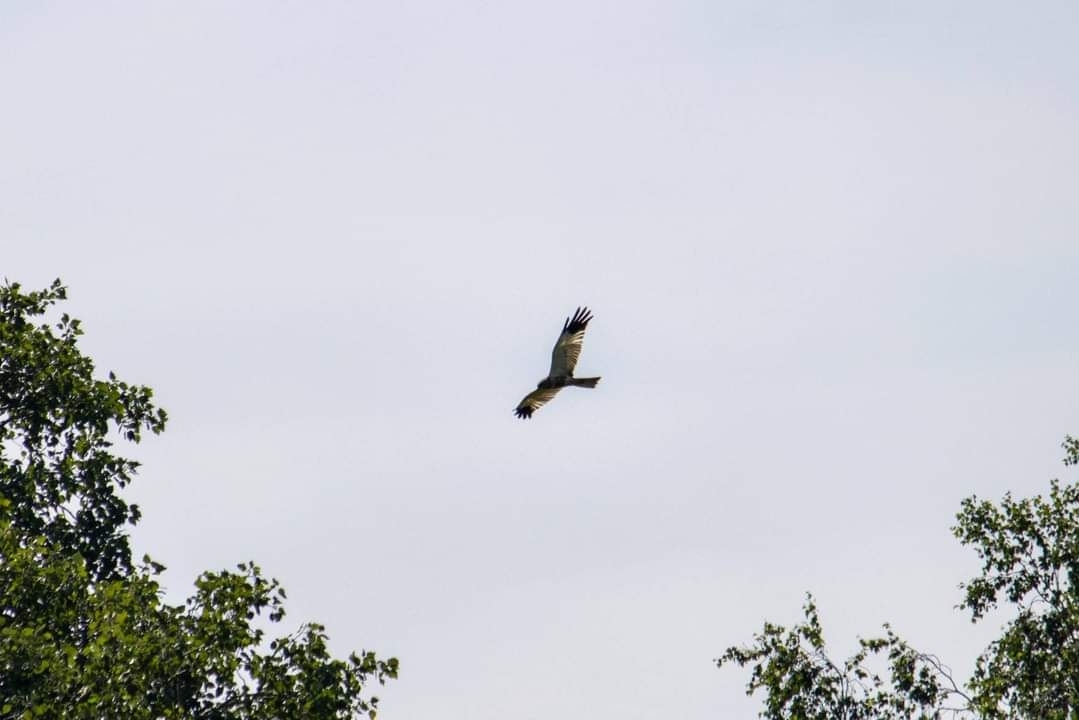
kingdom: Animalia
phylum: Chordata
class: Aves
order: Accipitriformes
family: Accipitridae
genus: Circus
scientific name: Circus aeruginosus
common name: Western marsh harrier
